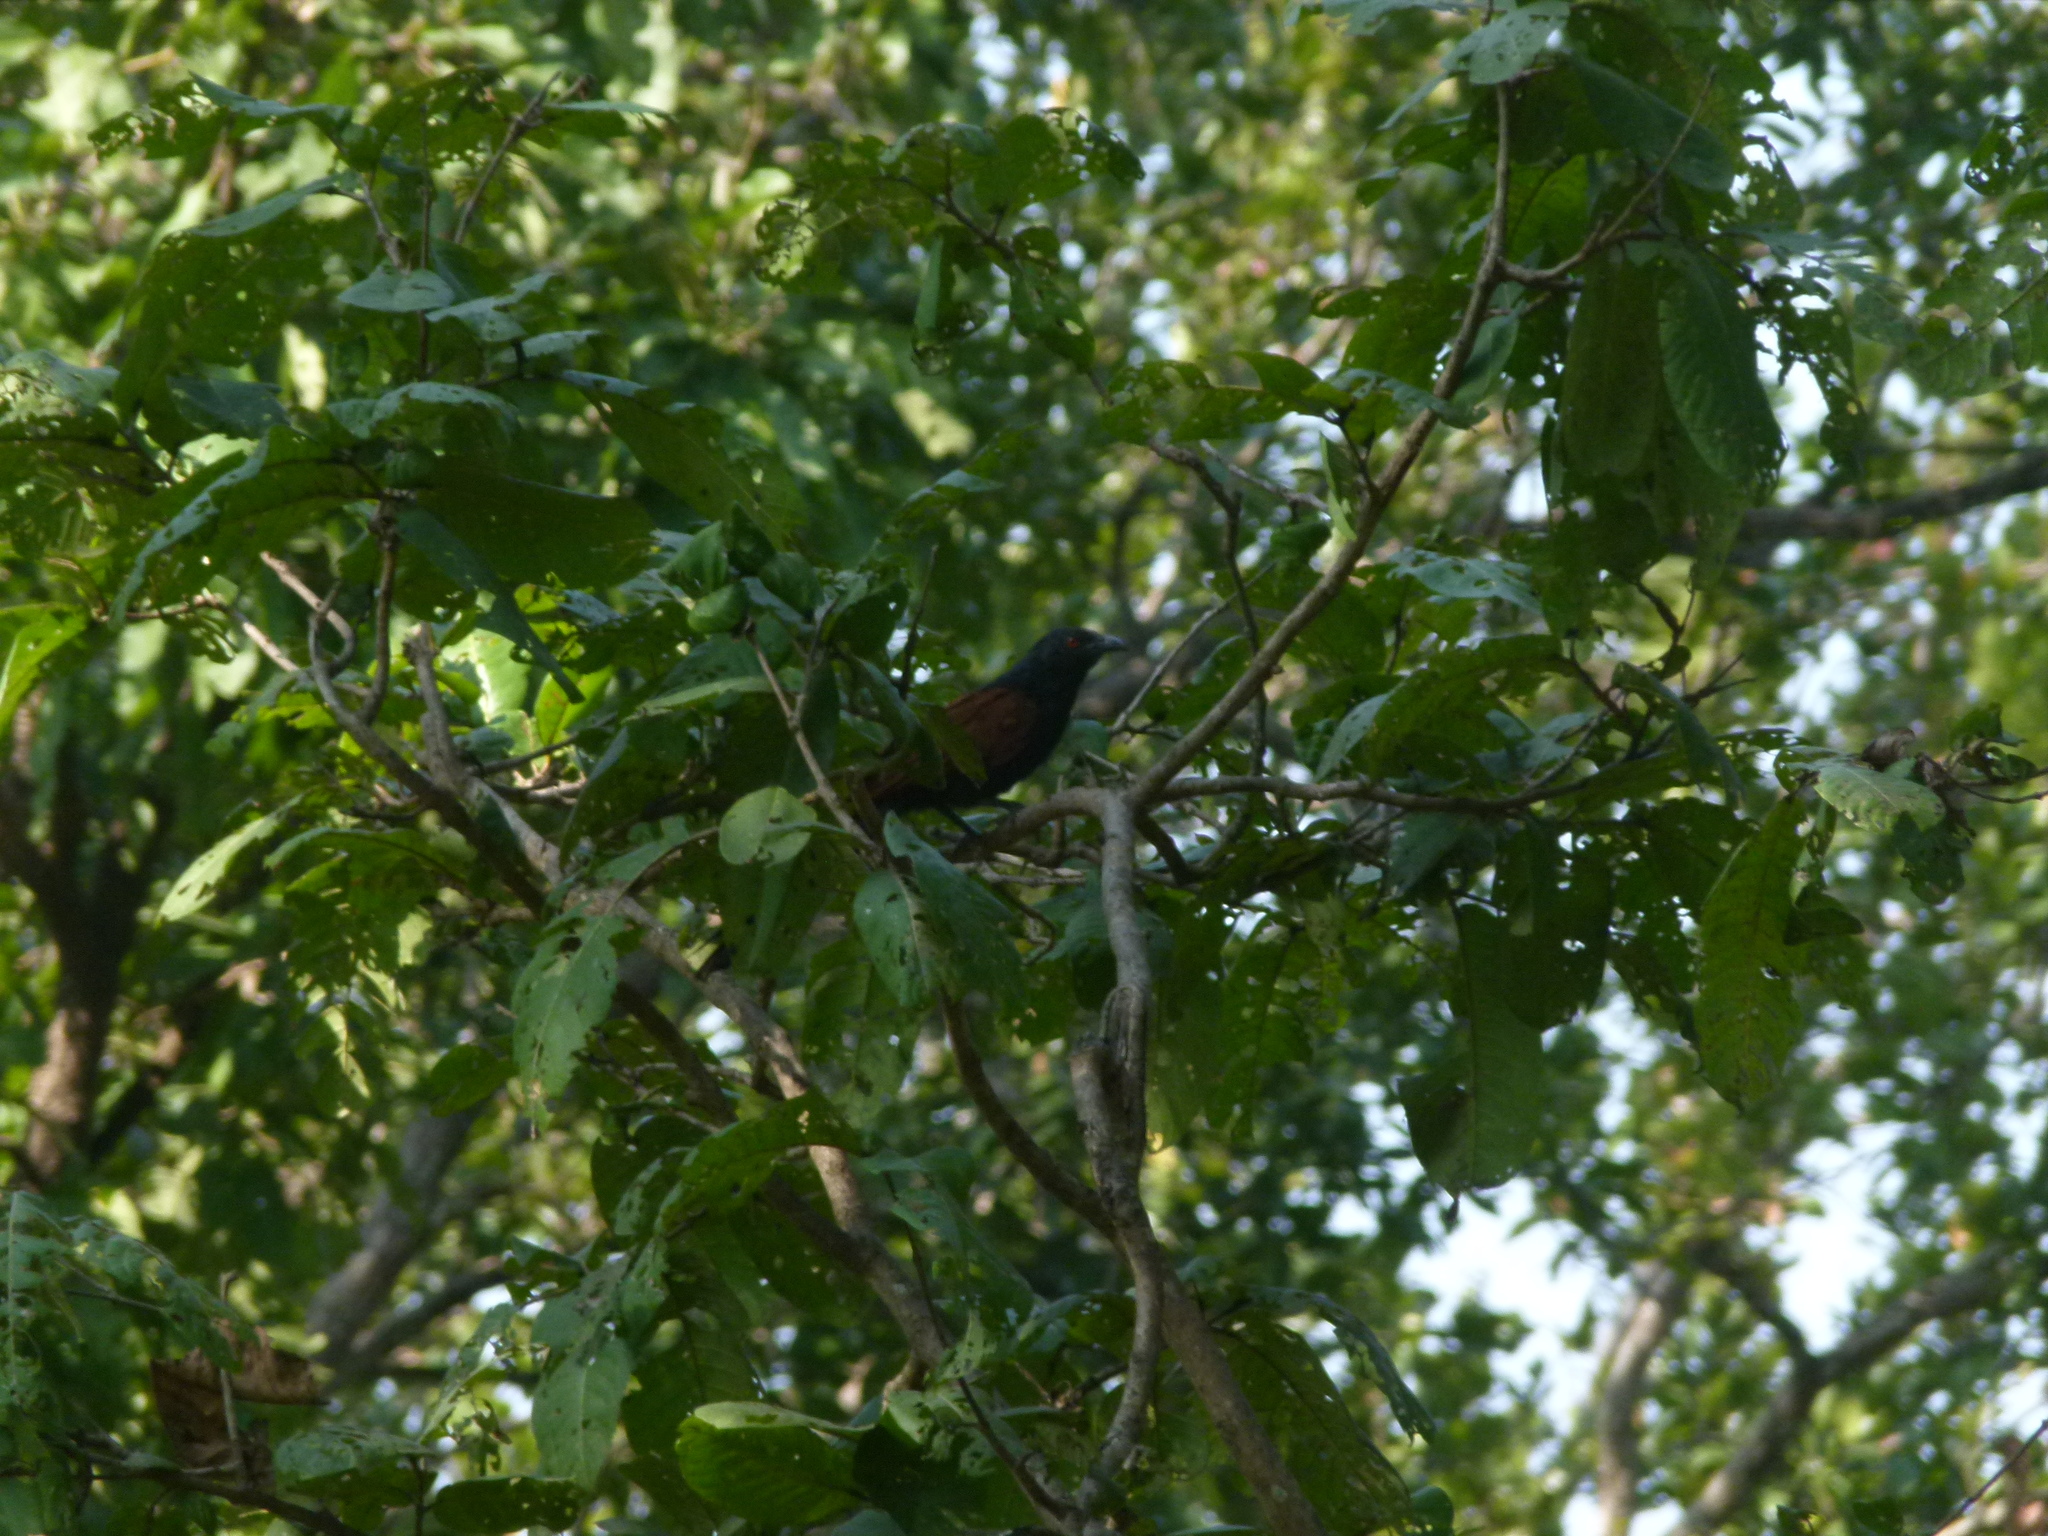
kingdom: Animalia
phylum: Chordata
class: Aves
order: Cuculiformes
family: Cuculidae
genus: Centropus
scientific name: Centropus sinensis
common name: Greater coucal
